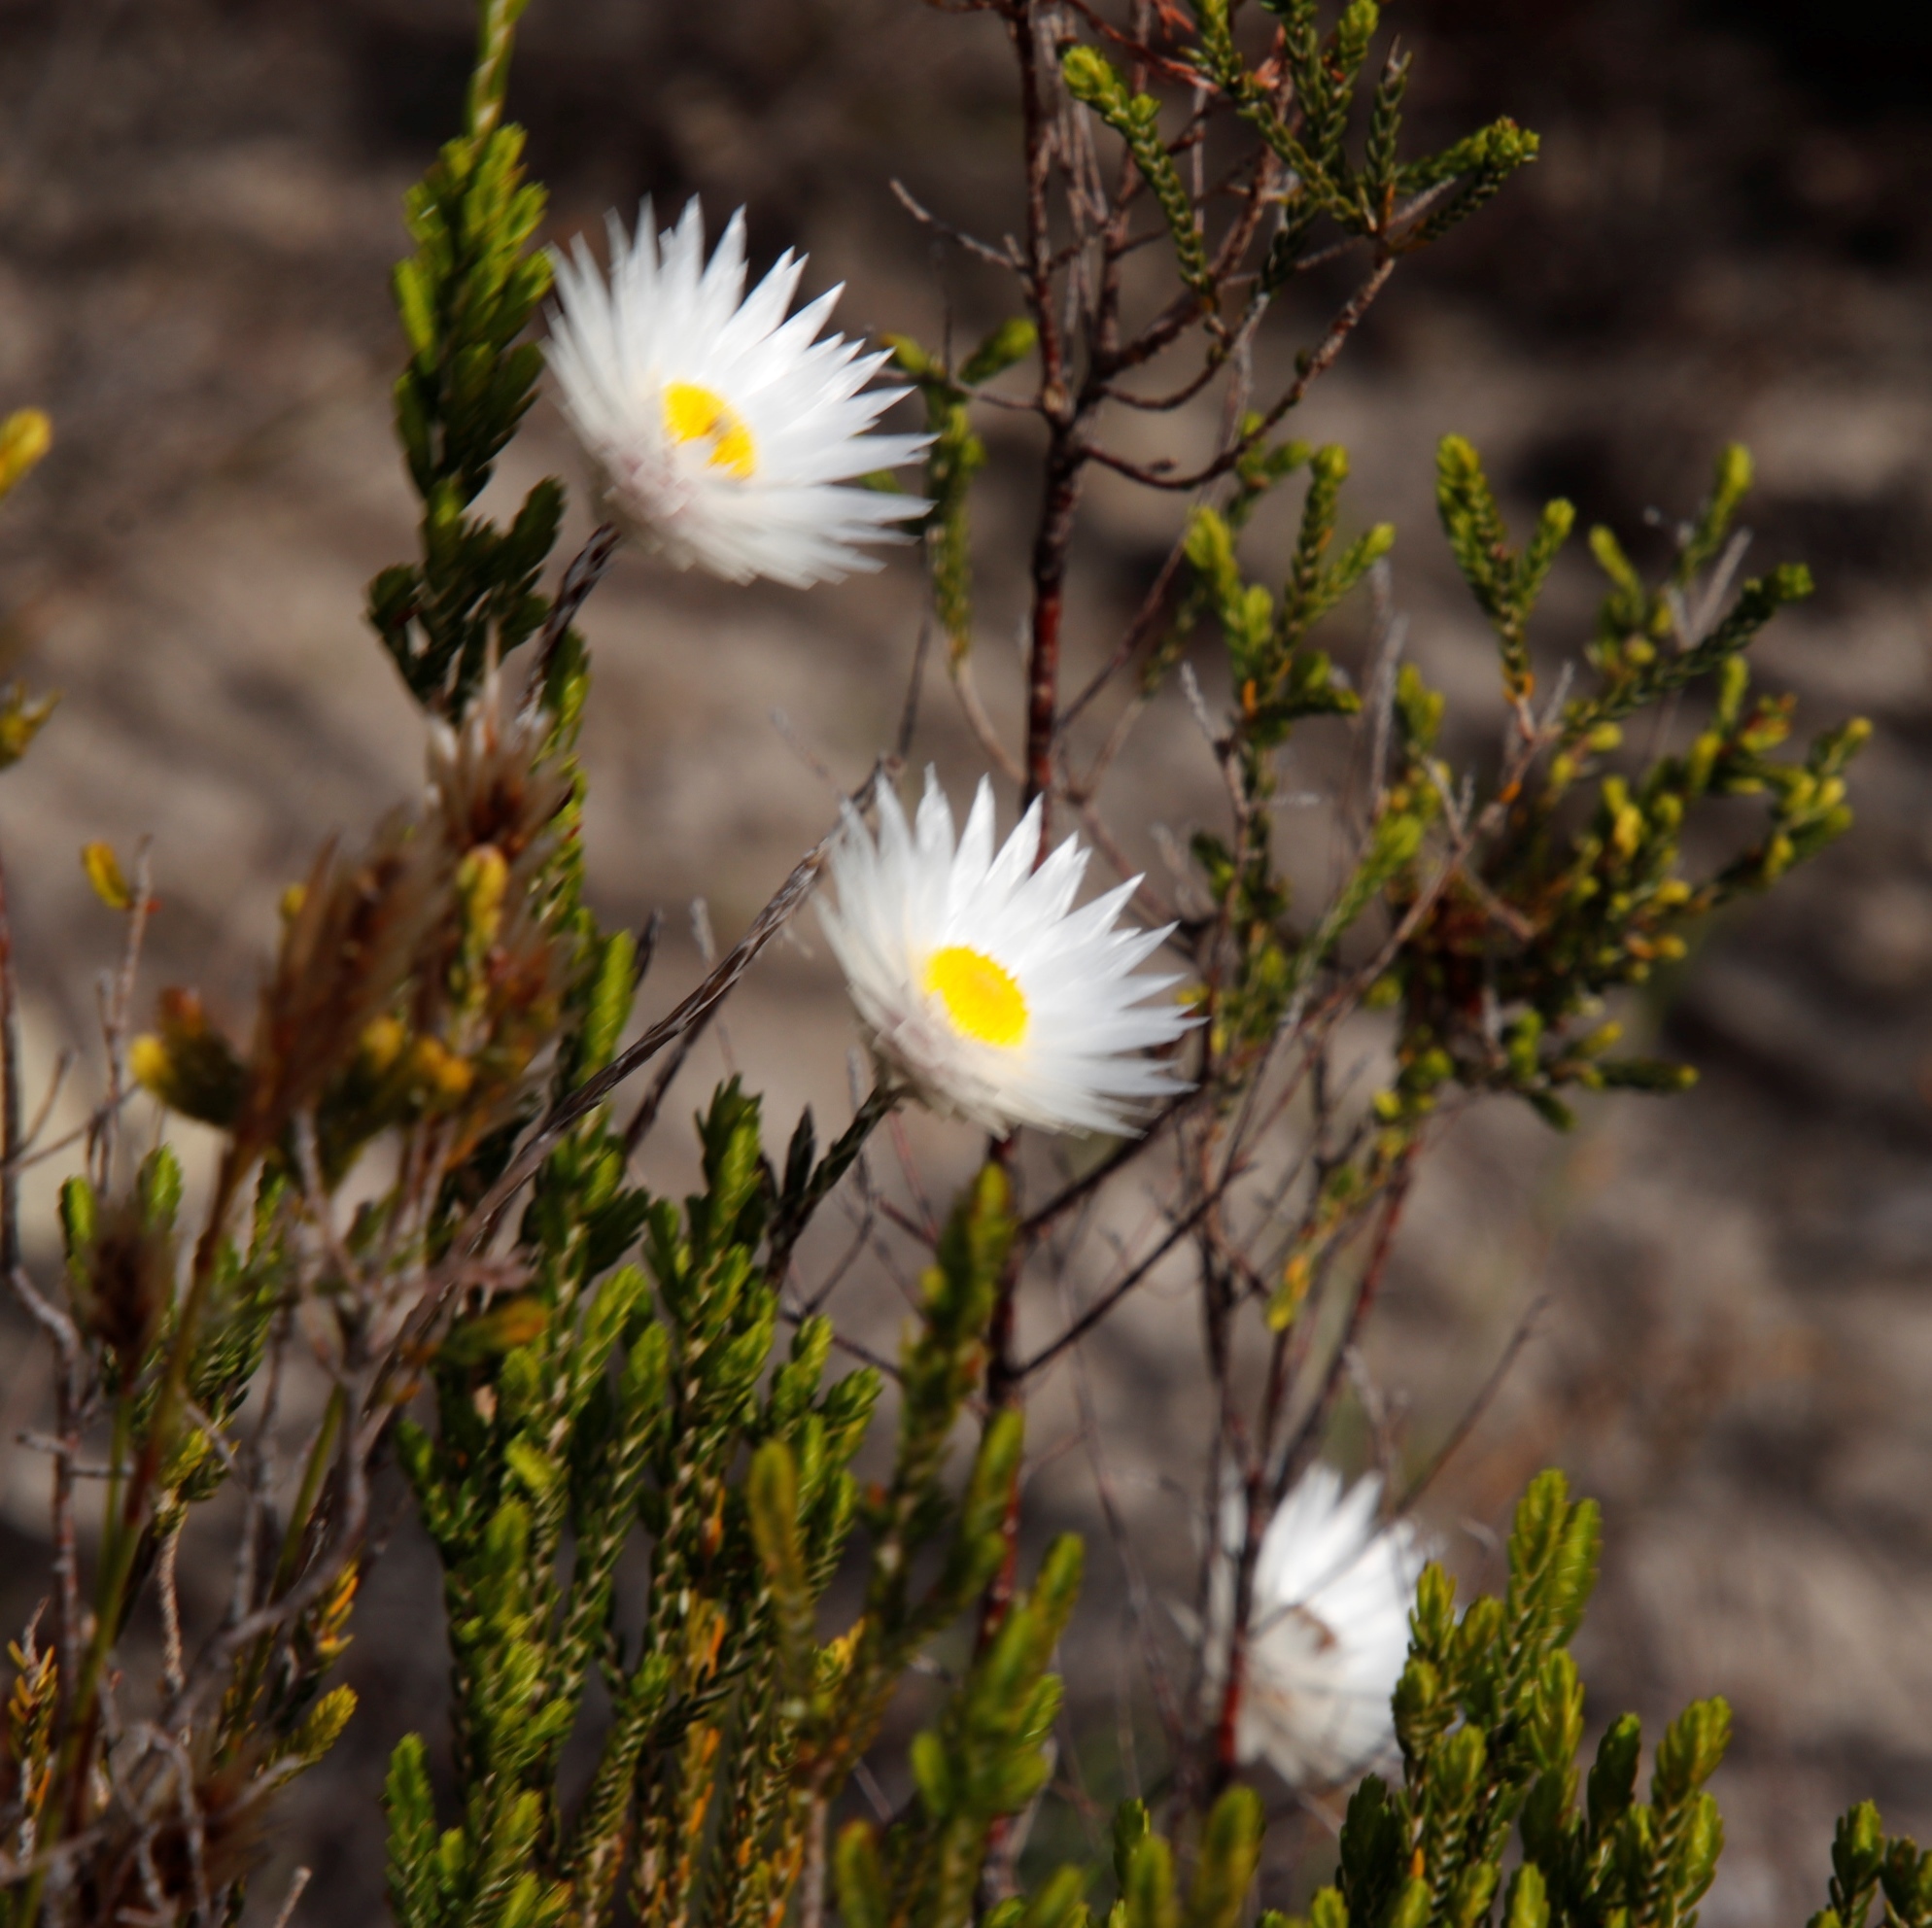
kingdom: Plantae
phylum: Tracheophyta
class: Magnoliopsida
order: Asterales
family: Asteraceae
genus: Edmondia
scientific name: Edmondia sesamoides
